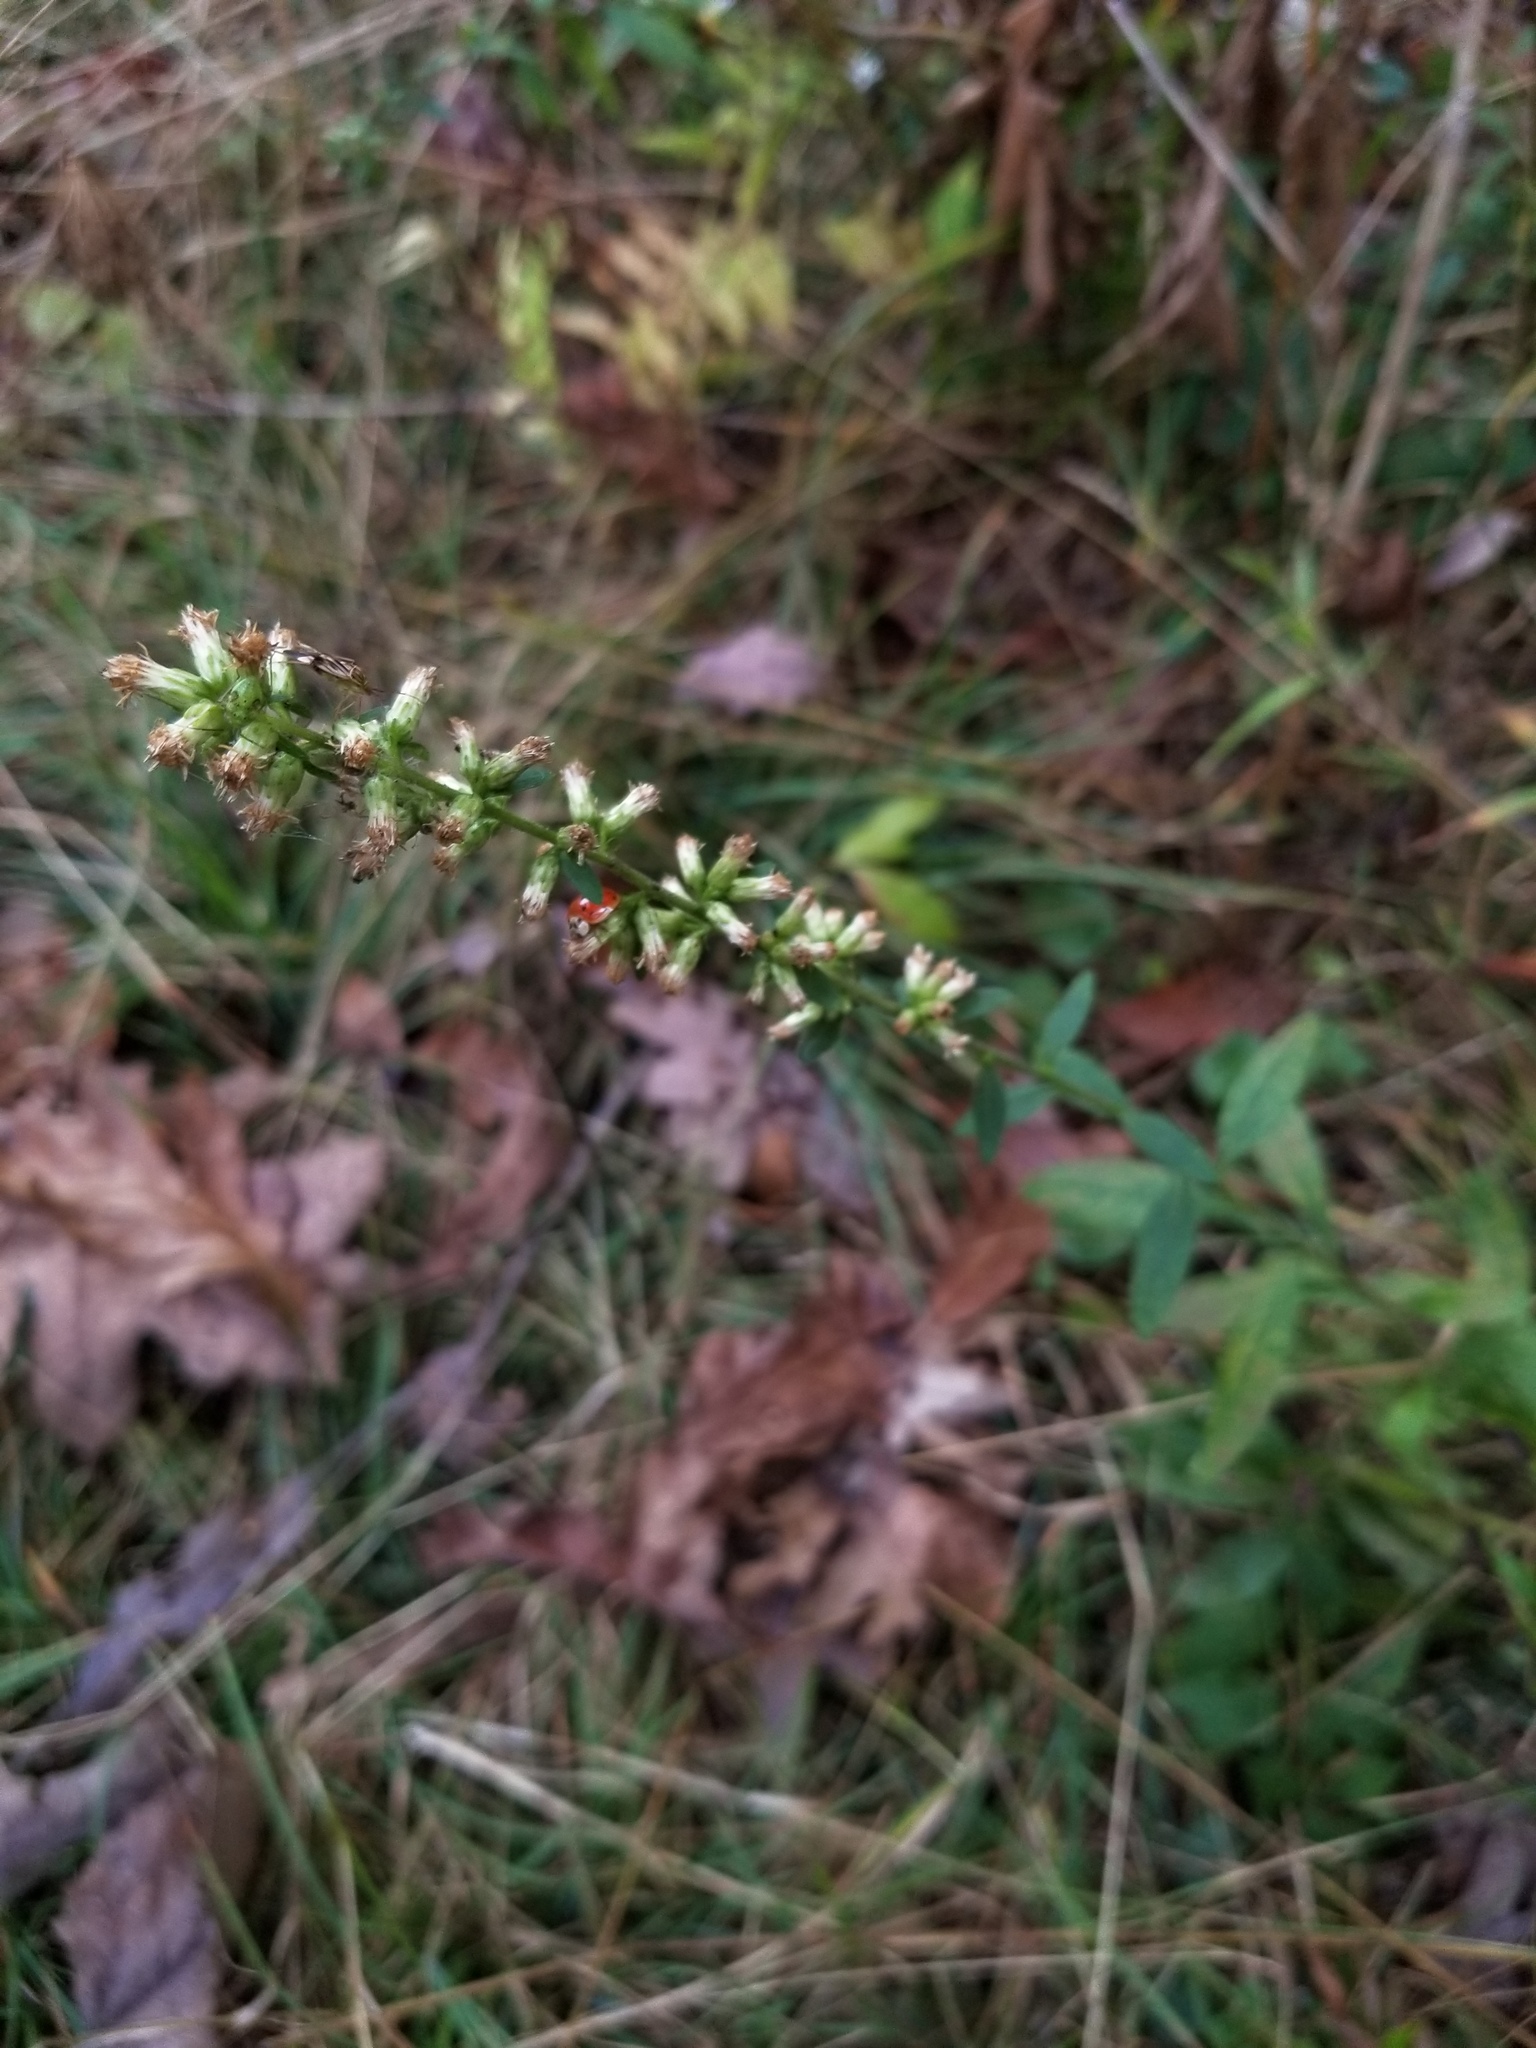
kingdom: Plantae
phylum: Tracheophyta
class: Magnoliopsida
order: Asterales
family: Asteraceae
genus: Solidago
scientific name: Solidago bicolor
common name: Silverrod
